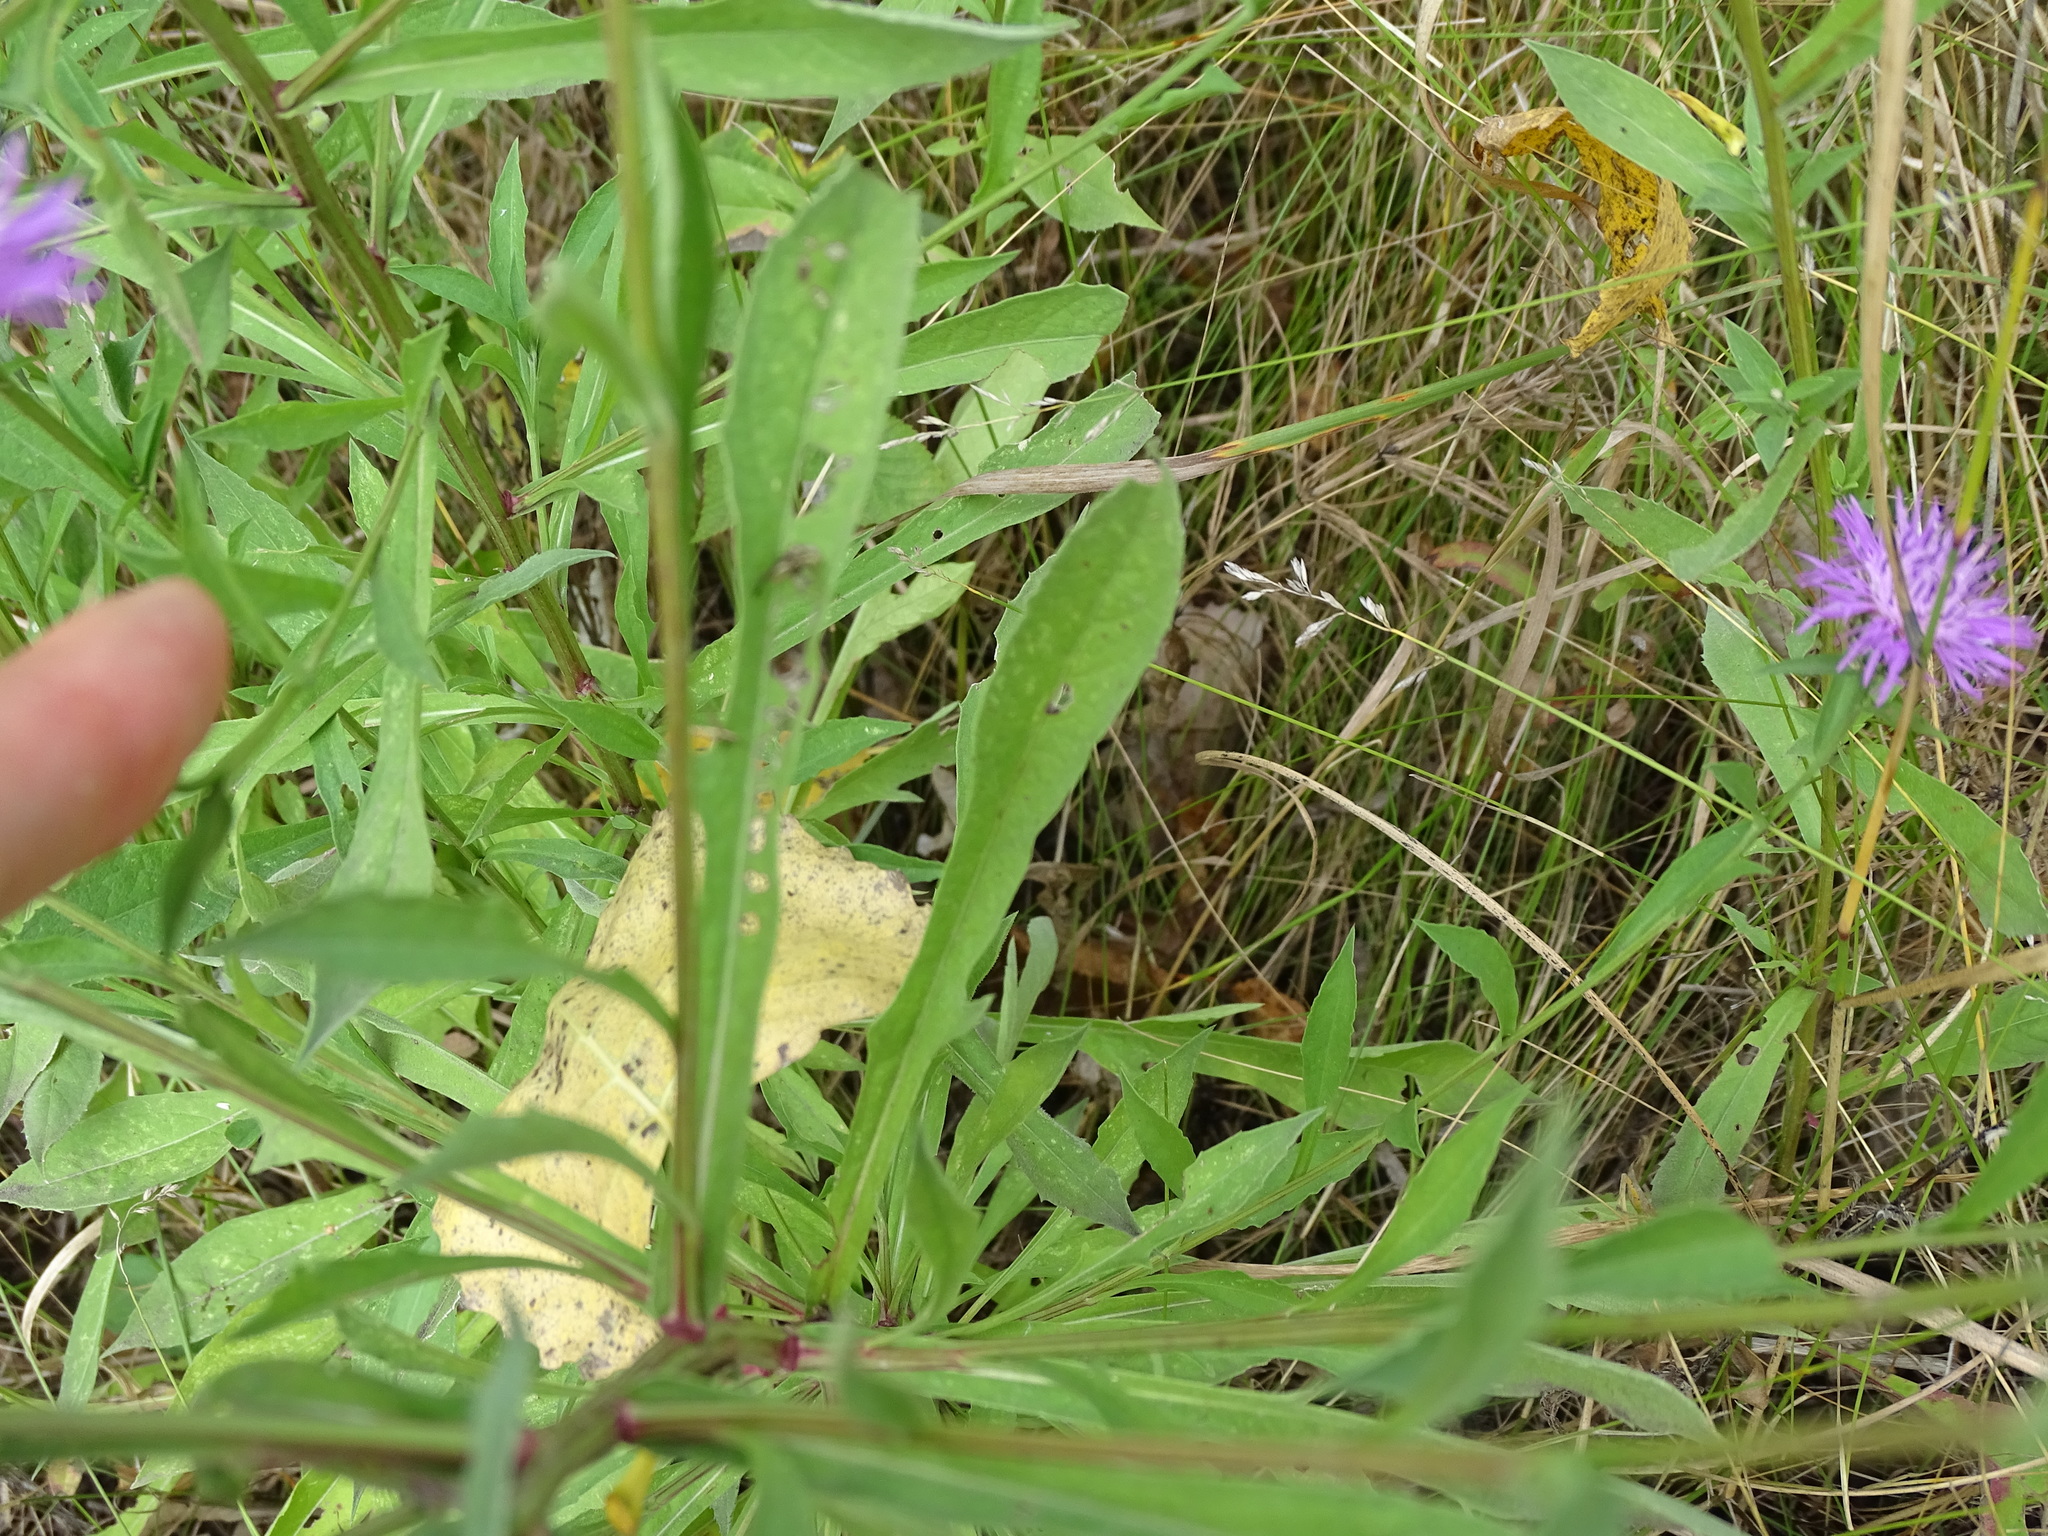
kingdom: Plantae
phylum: Tracheophyta
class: Magnoliopsida
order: Asterales
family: Asteraceae
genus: Centaurea
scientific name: Centaurea nigrescens
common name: Tyrol knapweed
